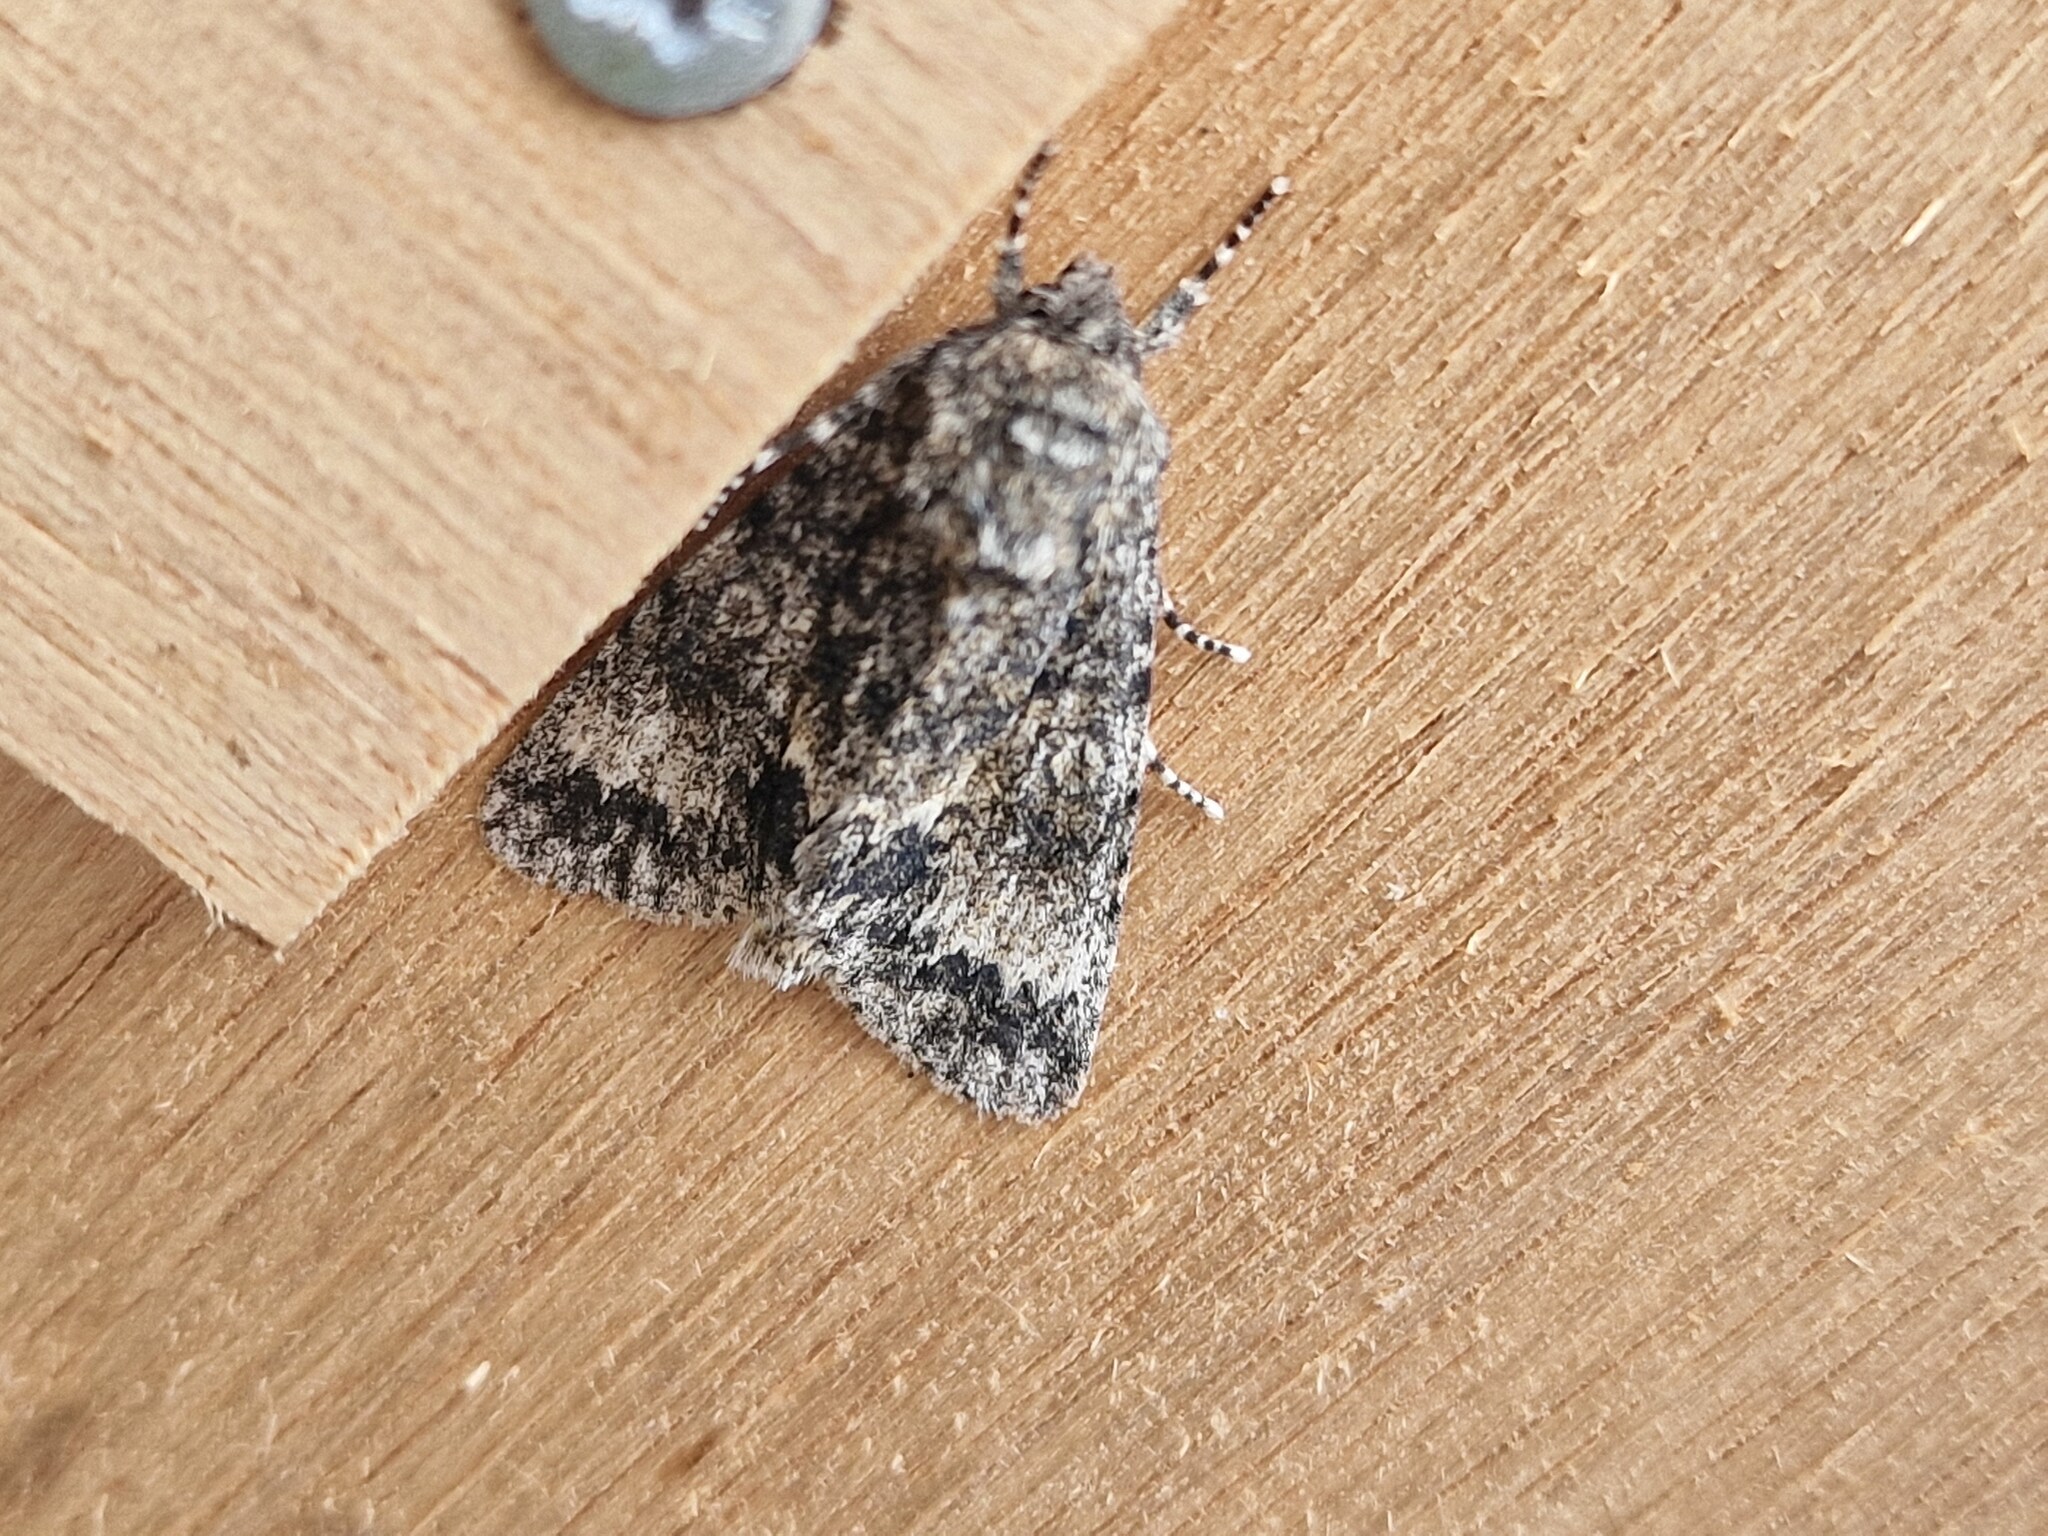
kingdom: Animalia
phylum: Arthropoda
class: Insecta
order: Lepidoptera
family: Noctuidae
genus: Acronicta
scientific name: Acronicta megacephala
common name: Poplar grey
